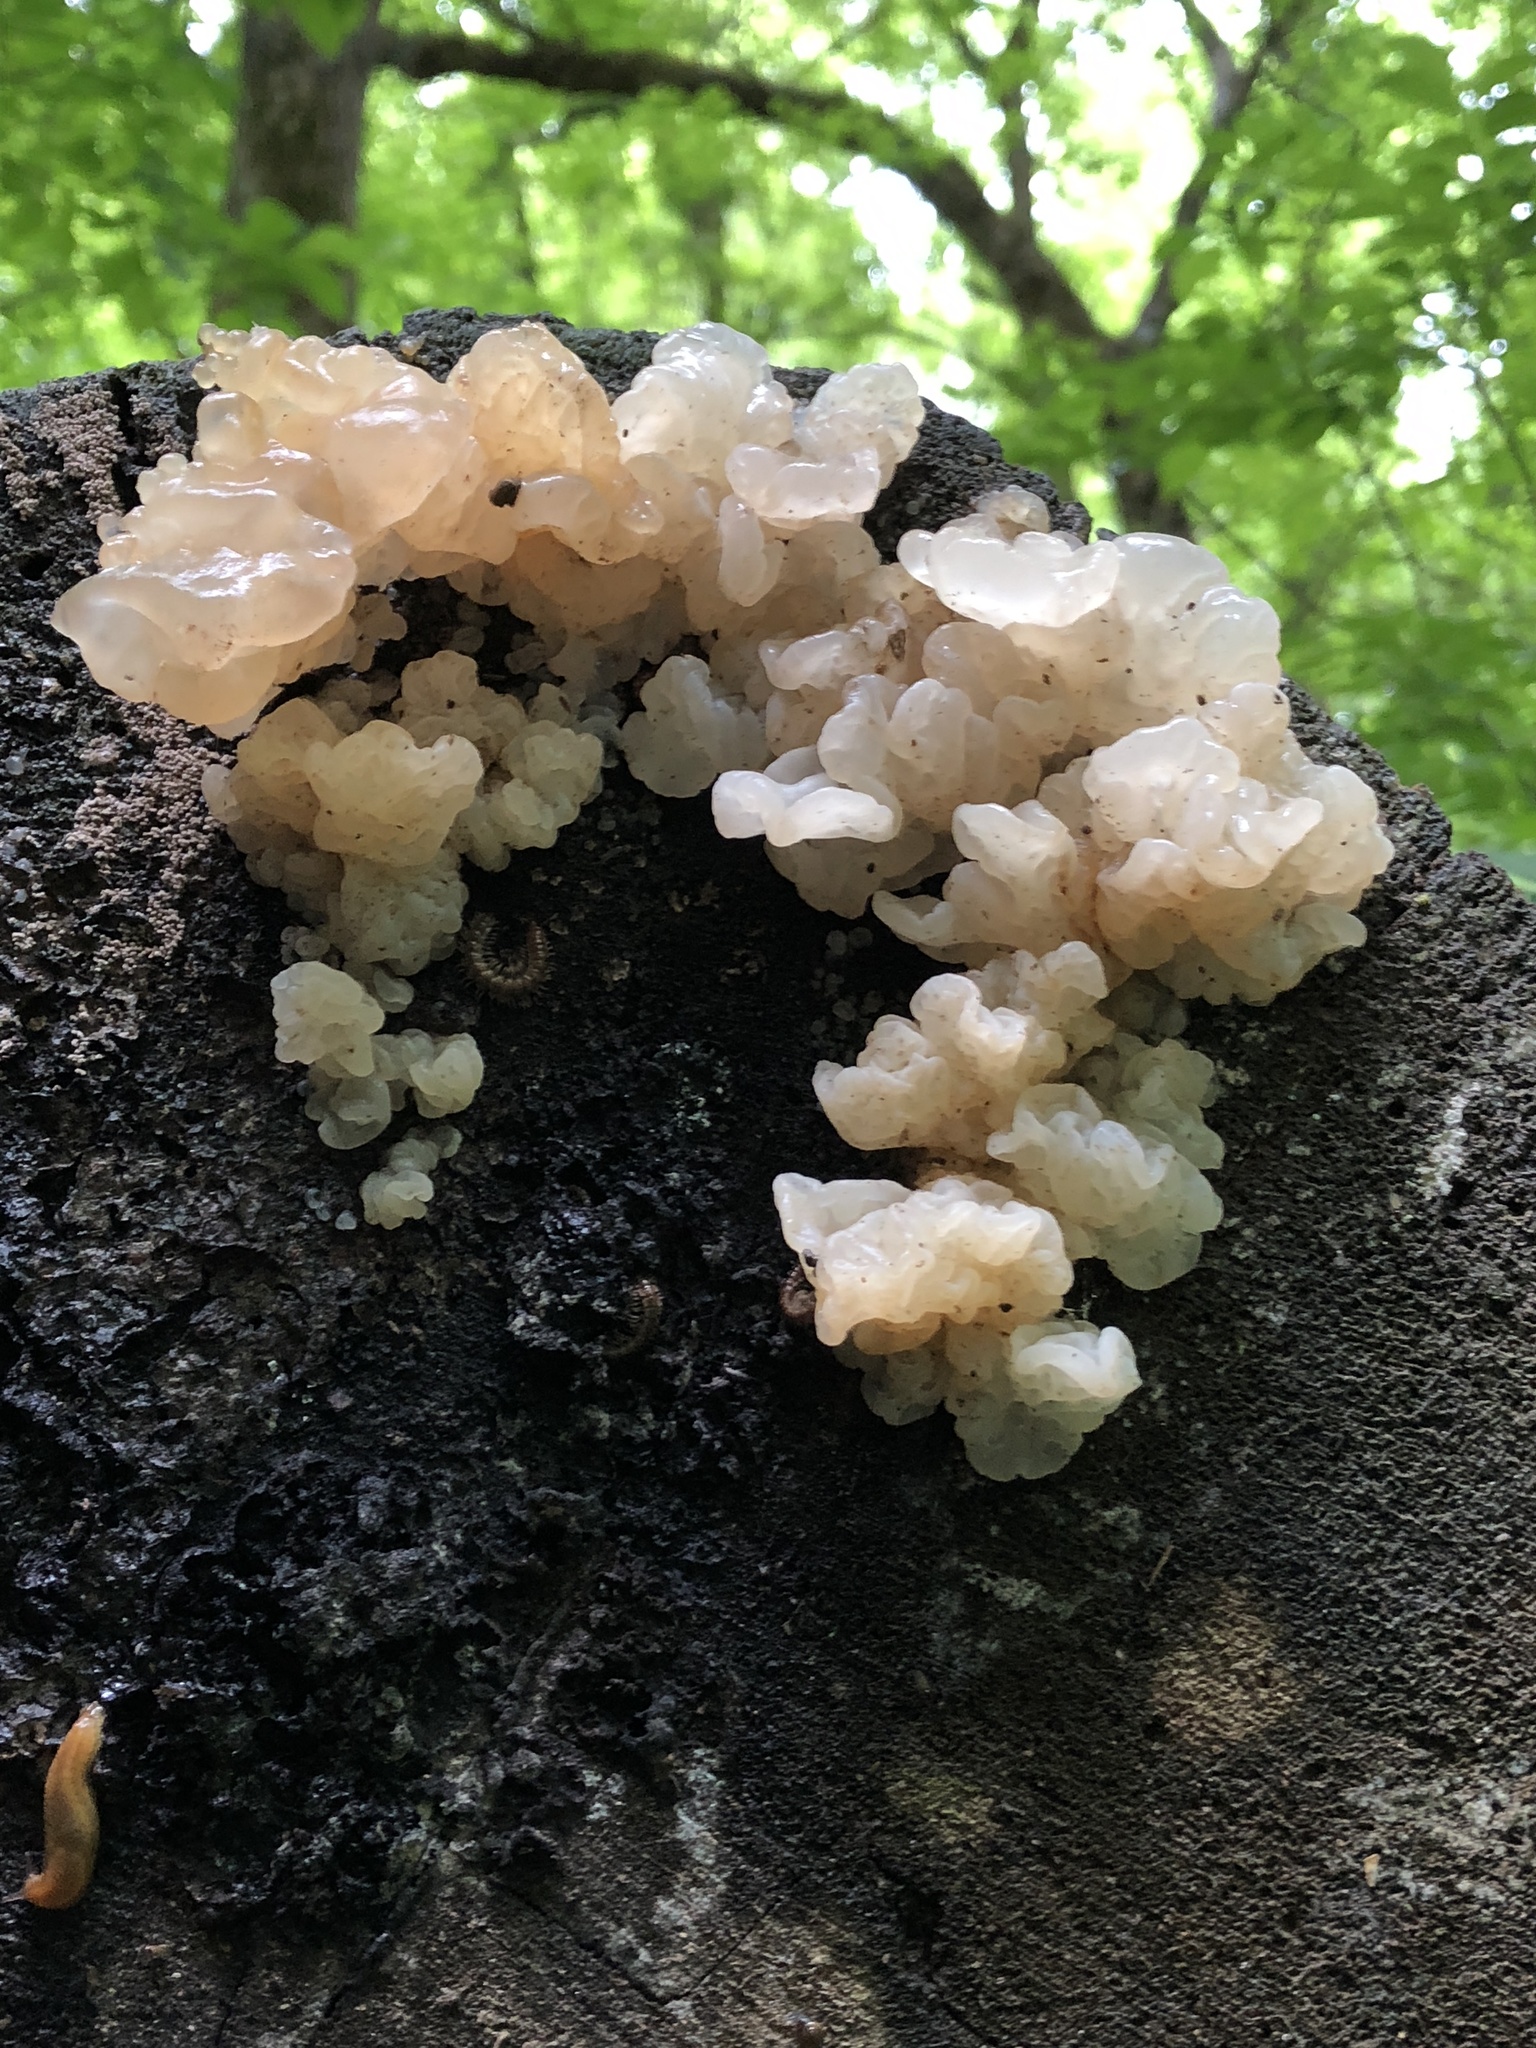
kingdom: Fungi
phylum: Basidiomycota
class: Agaricomycetes
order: Auriculariales
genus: Ductifera
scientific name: Ductifera pululahuana
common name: White jelly fungus
